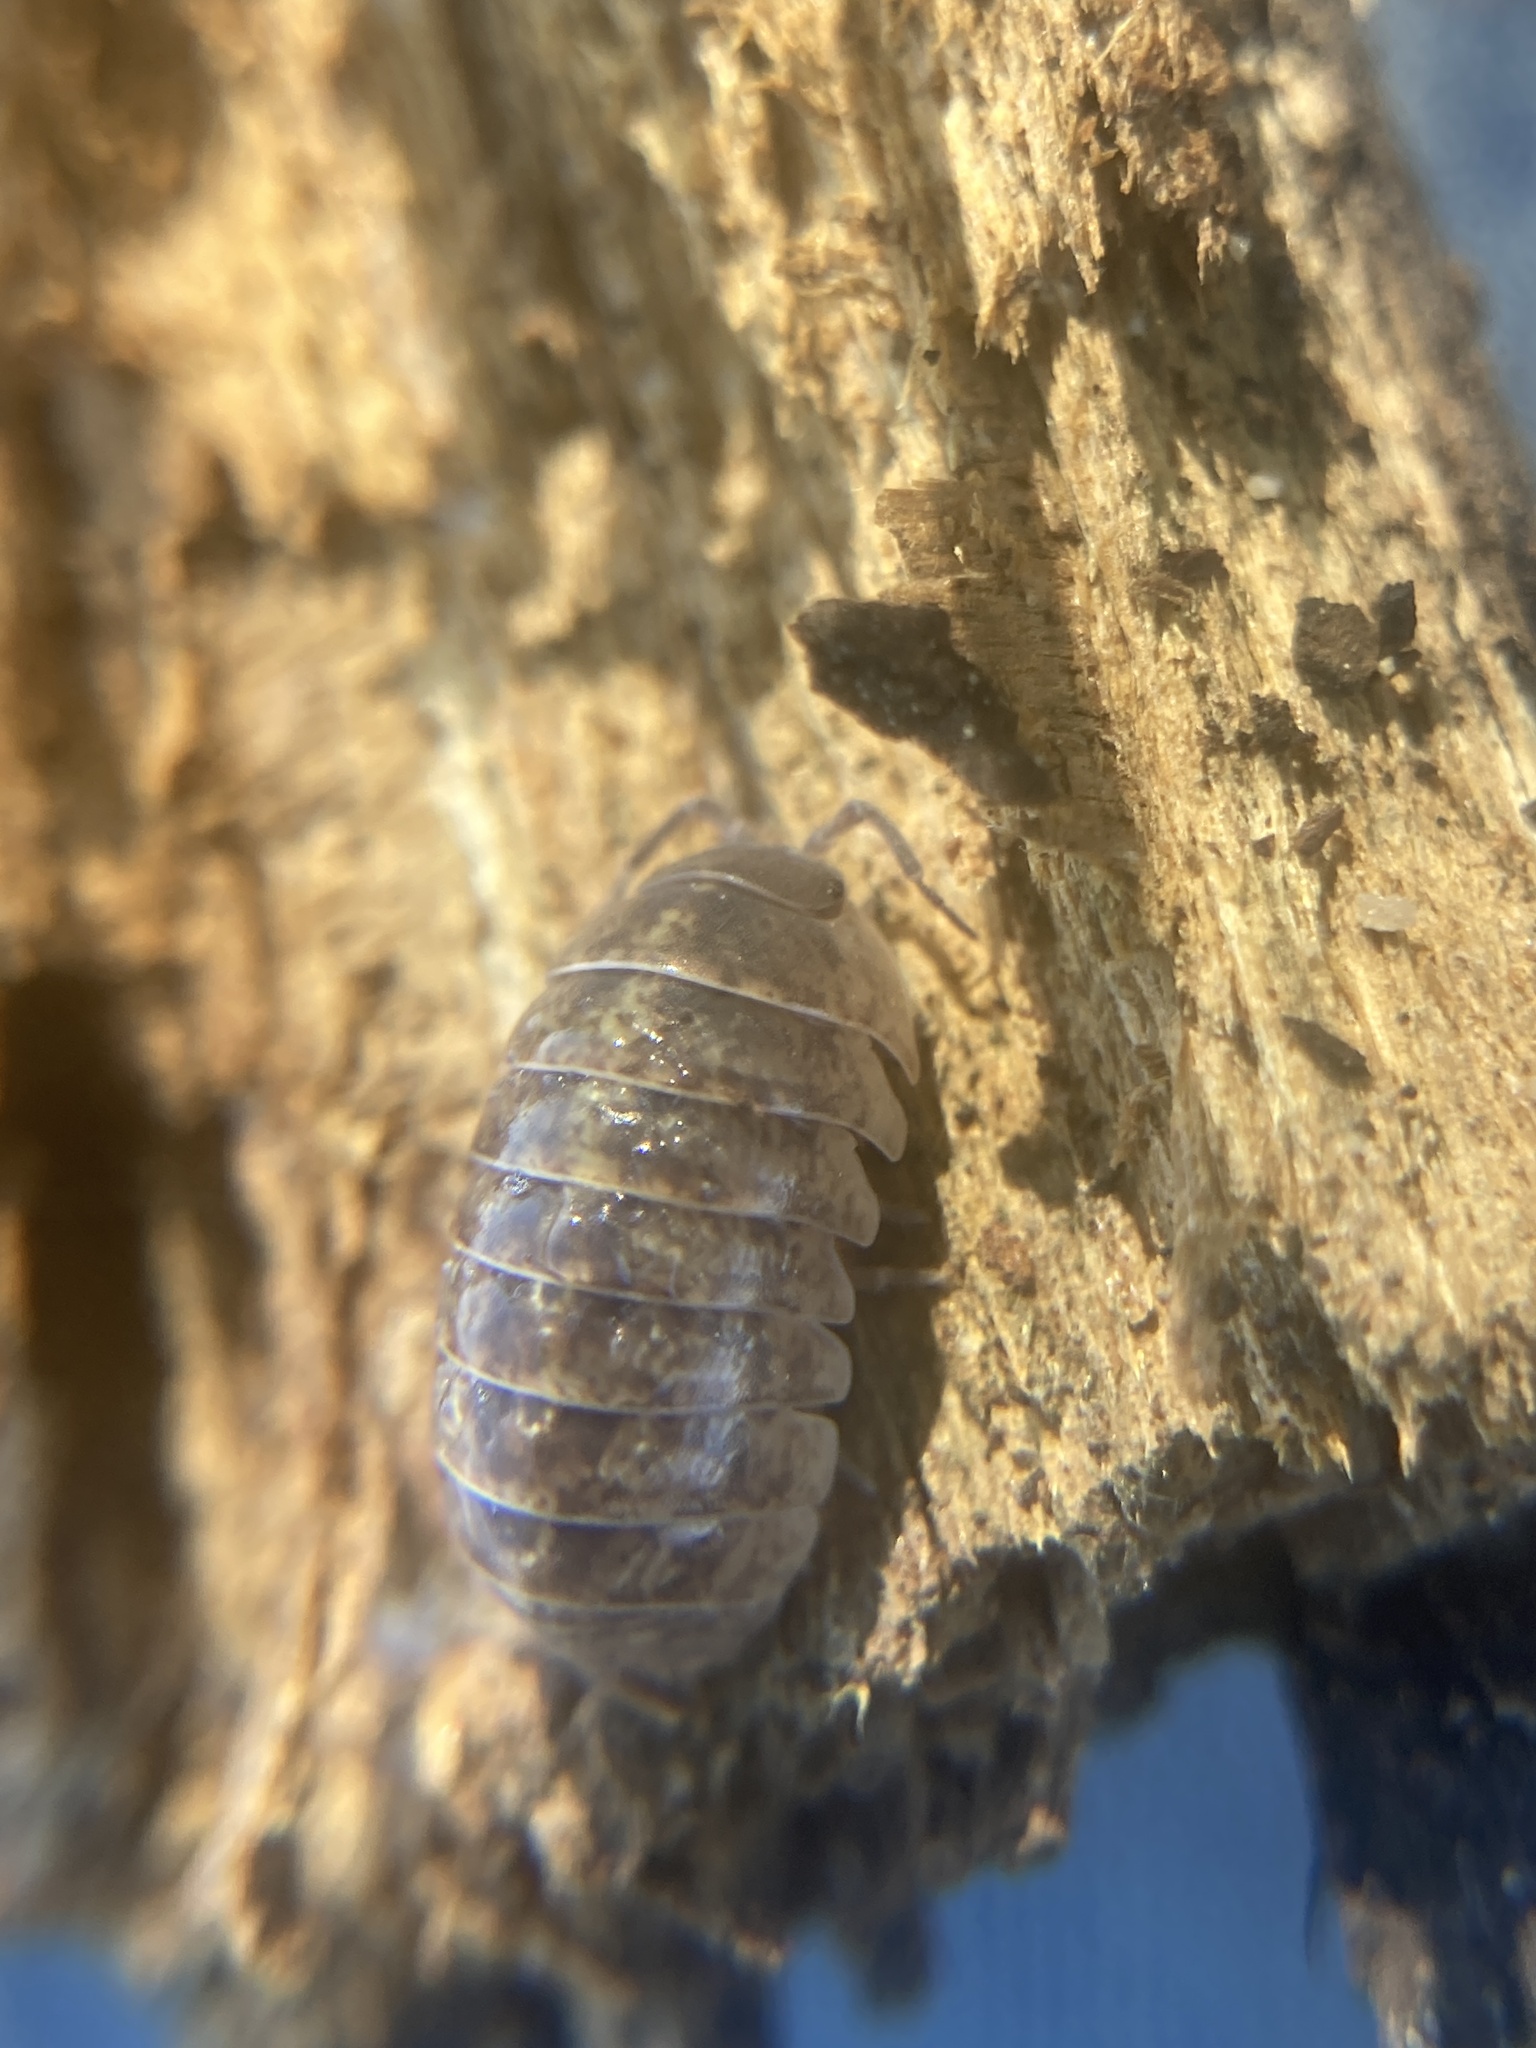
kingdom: Animalia
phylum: Arthropoda
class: Malacostraca
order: Isopoda
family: Armadillidiidae
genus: Armadillidium
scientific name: Armadillidium vulgare
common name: Common pill woodlouse
